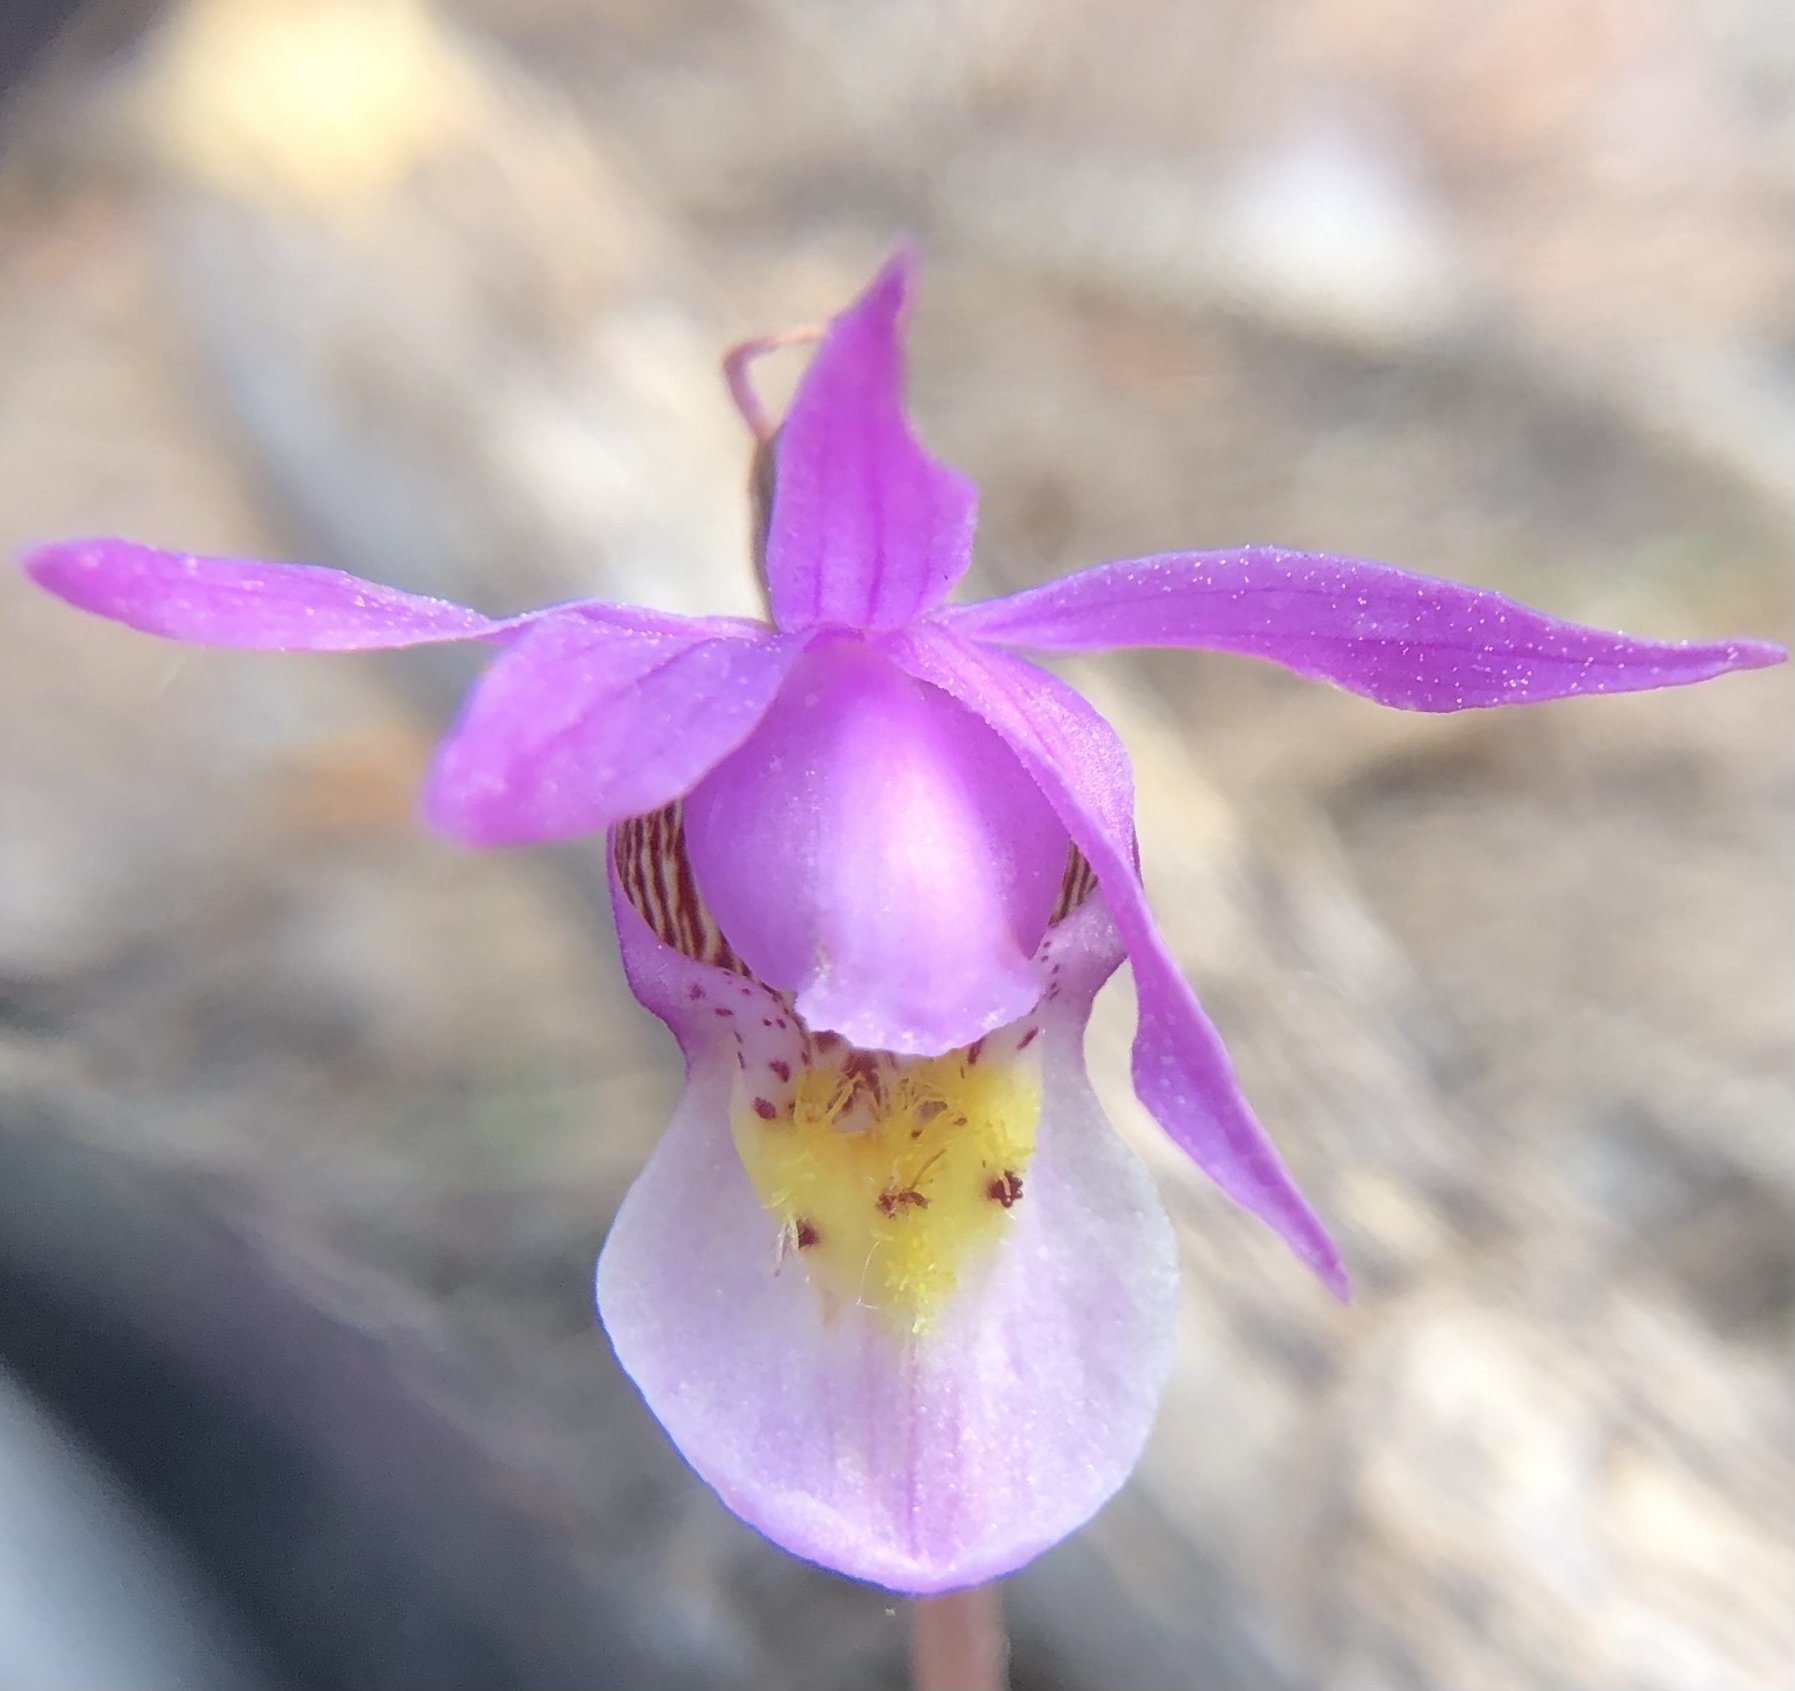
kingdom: Plantae
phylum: Tracheophyta
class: Liliopsida
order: Asparagales
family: Orchidaceae
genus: Calypso
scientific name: Calypso bulbosa
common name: Calypso
